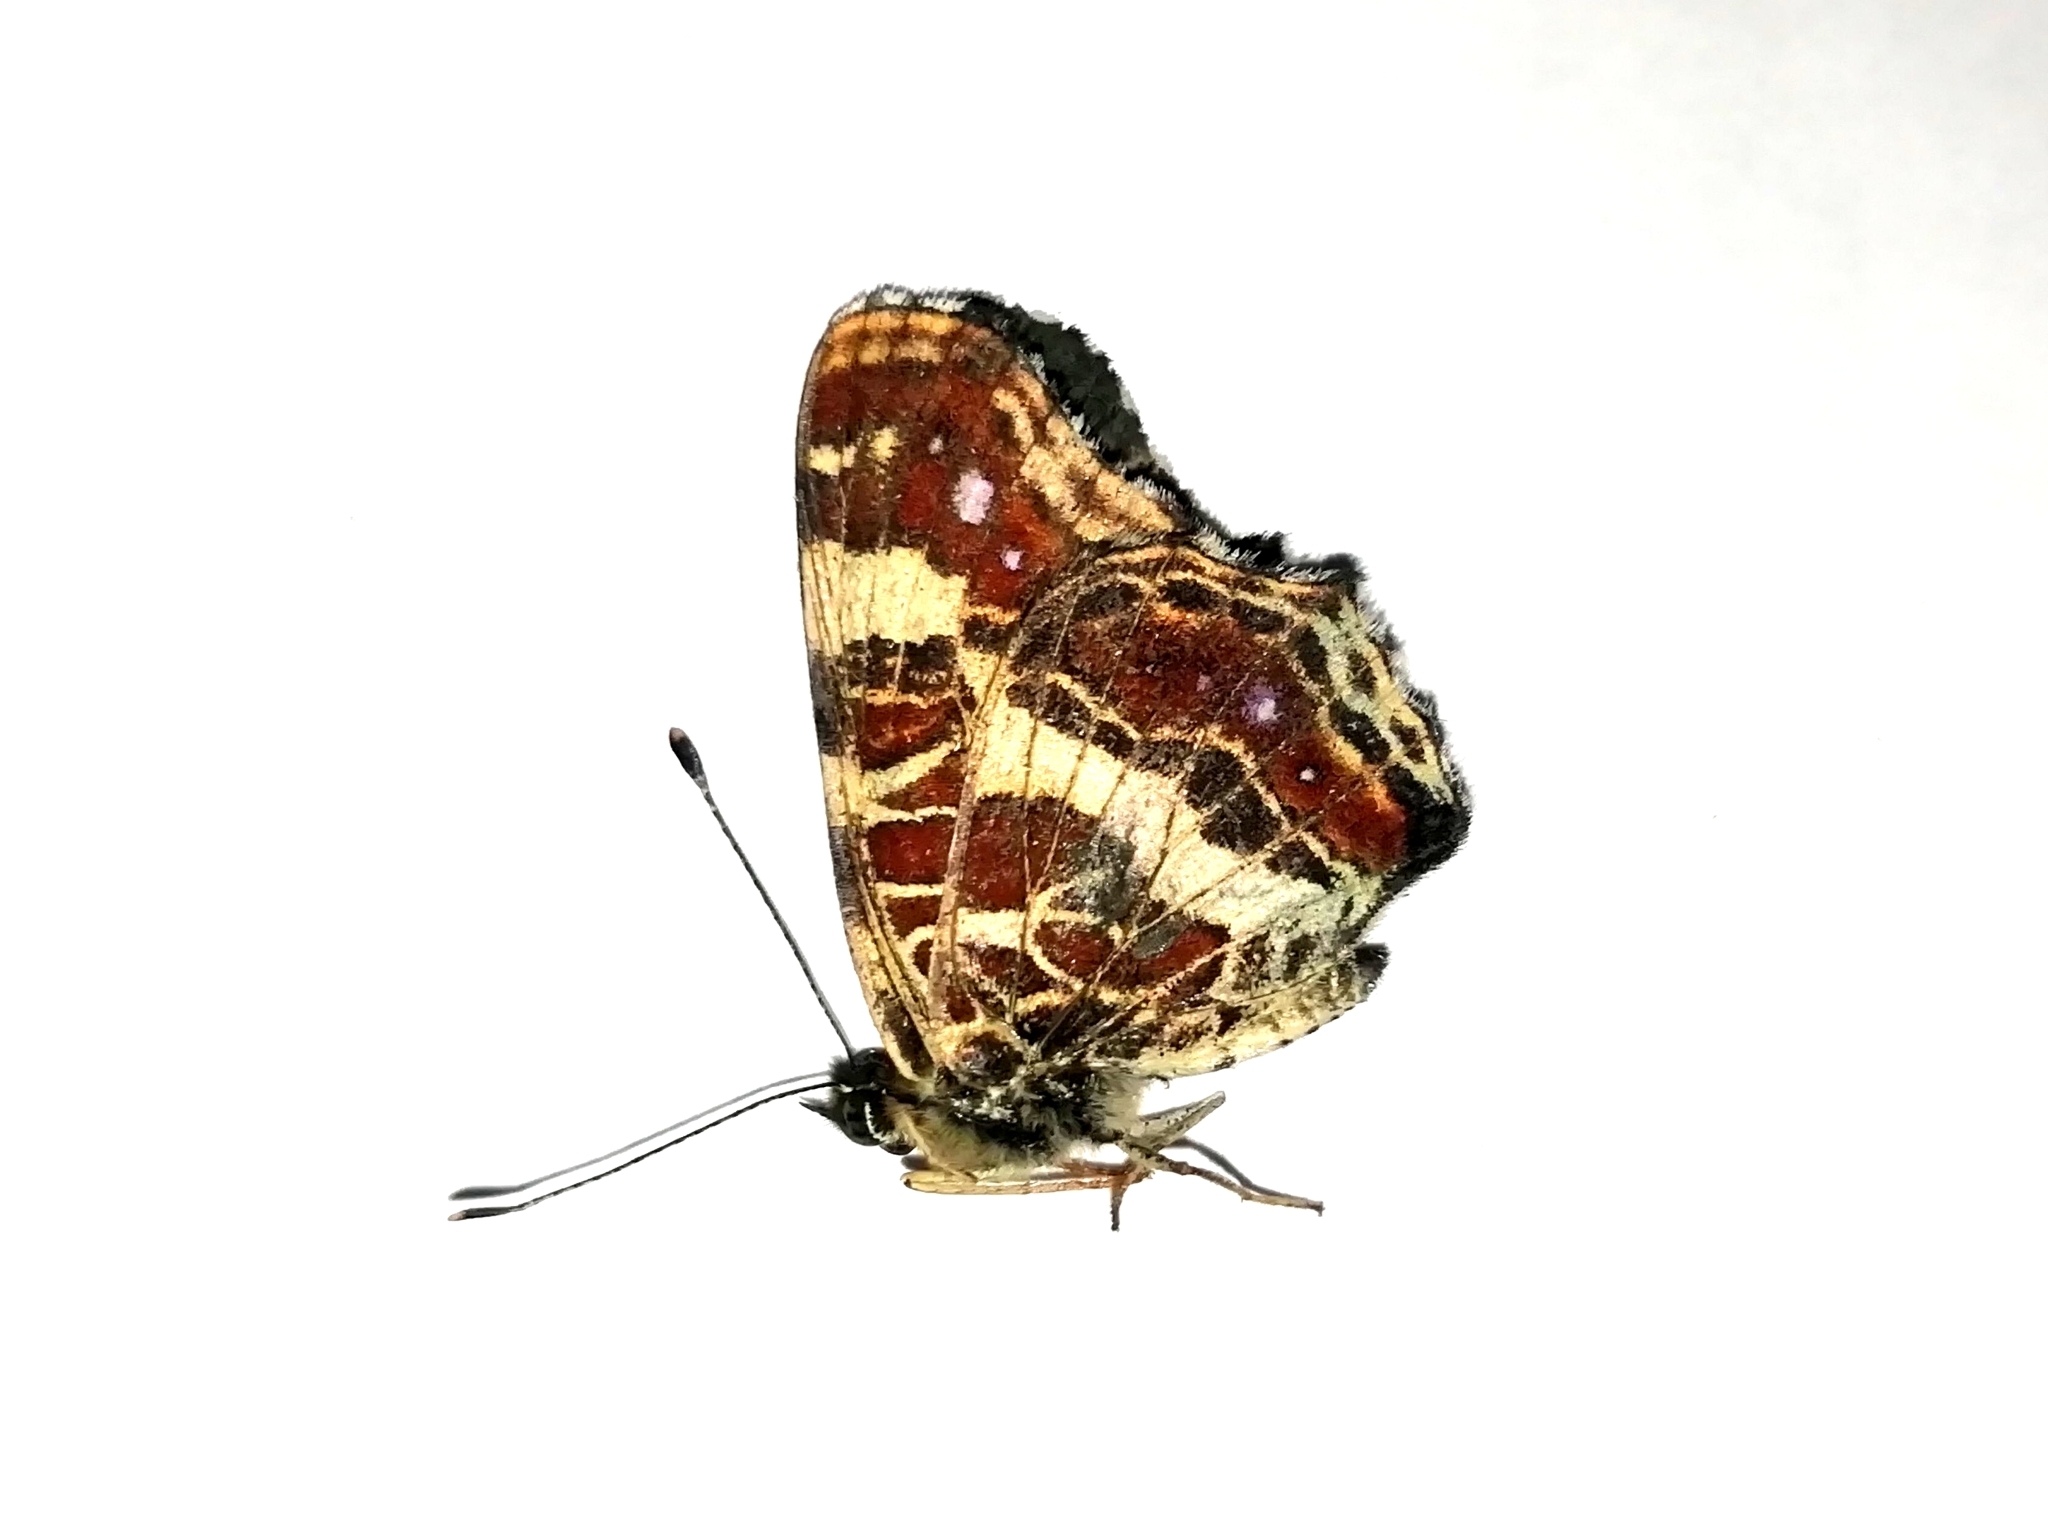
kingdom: Animalia
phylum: Arthropoda
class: Insecta
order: Lepidoptera
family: Nymphalidae
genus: Araschnia
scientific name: Araschnia levana
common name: Map butterfly
